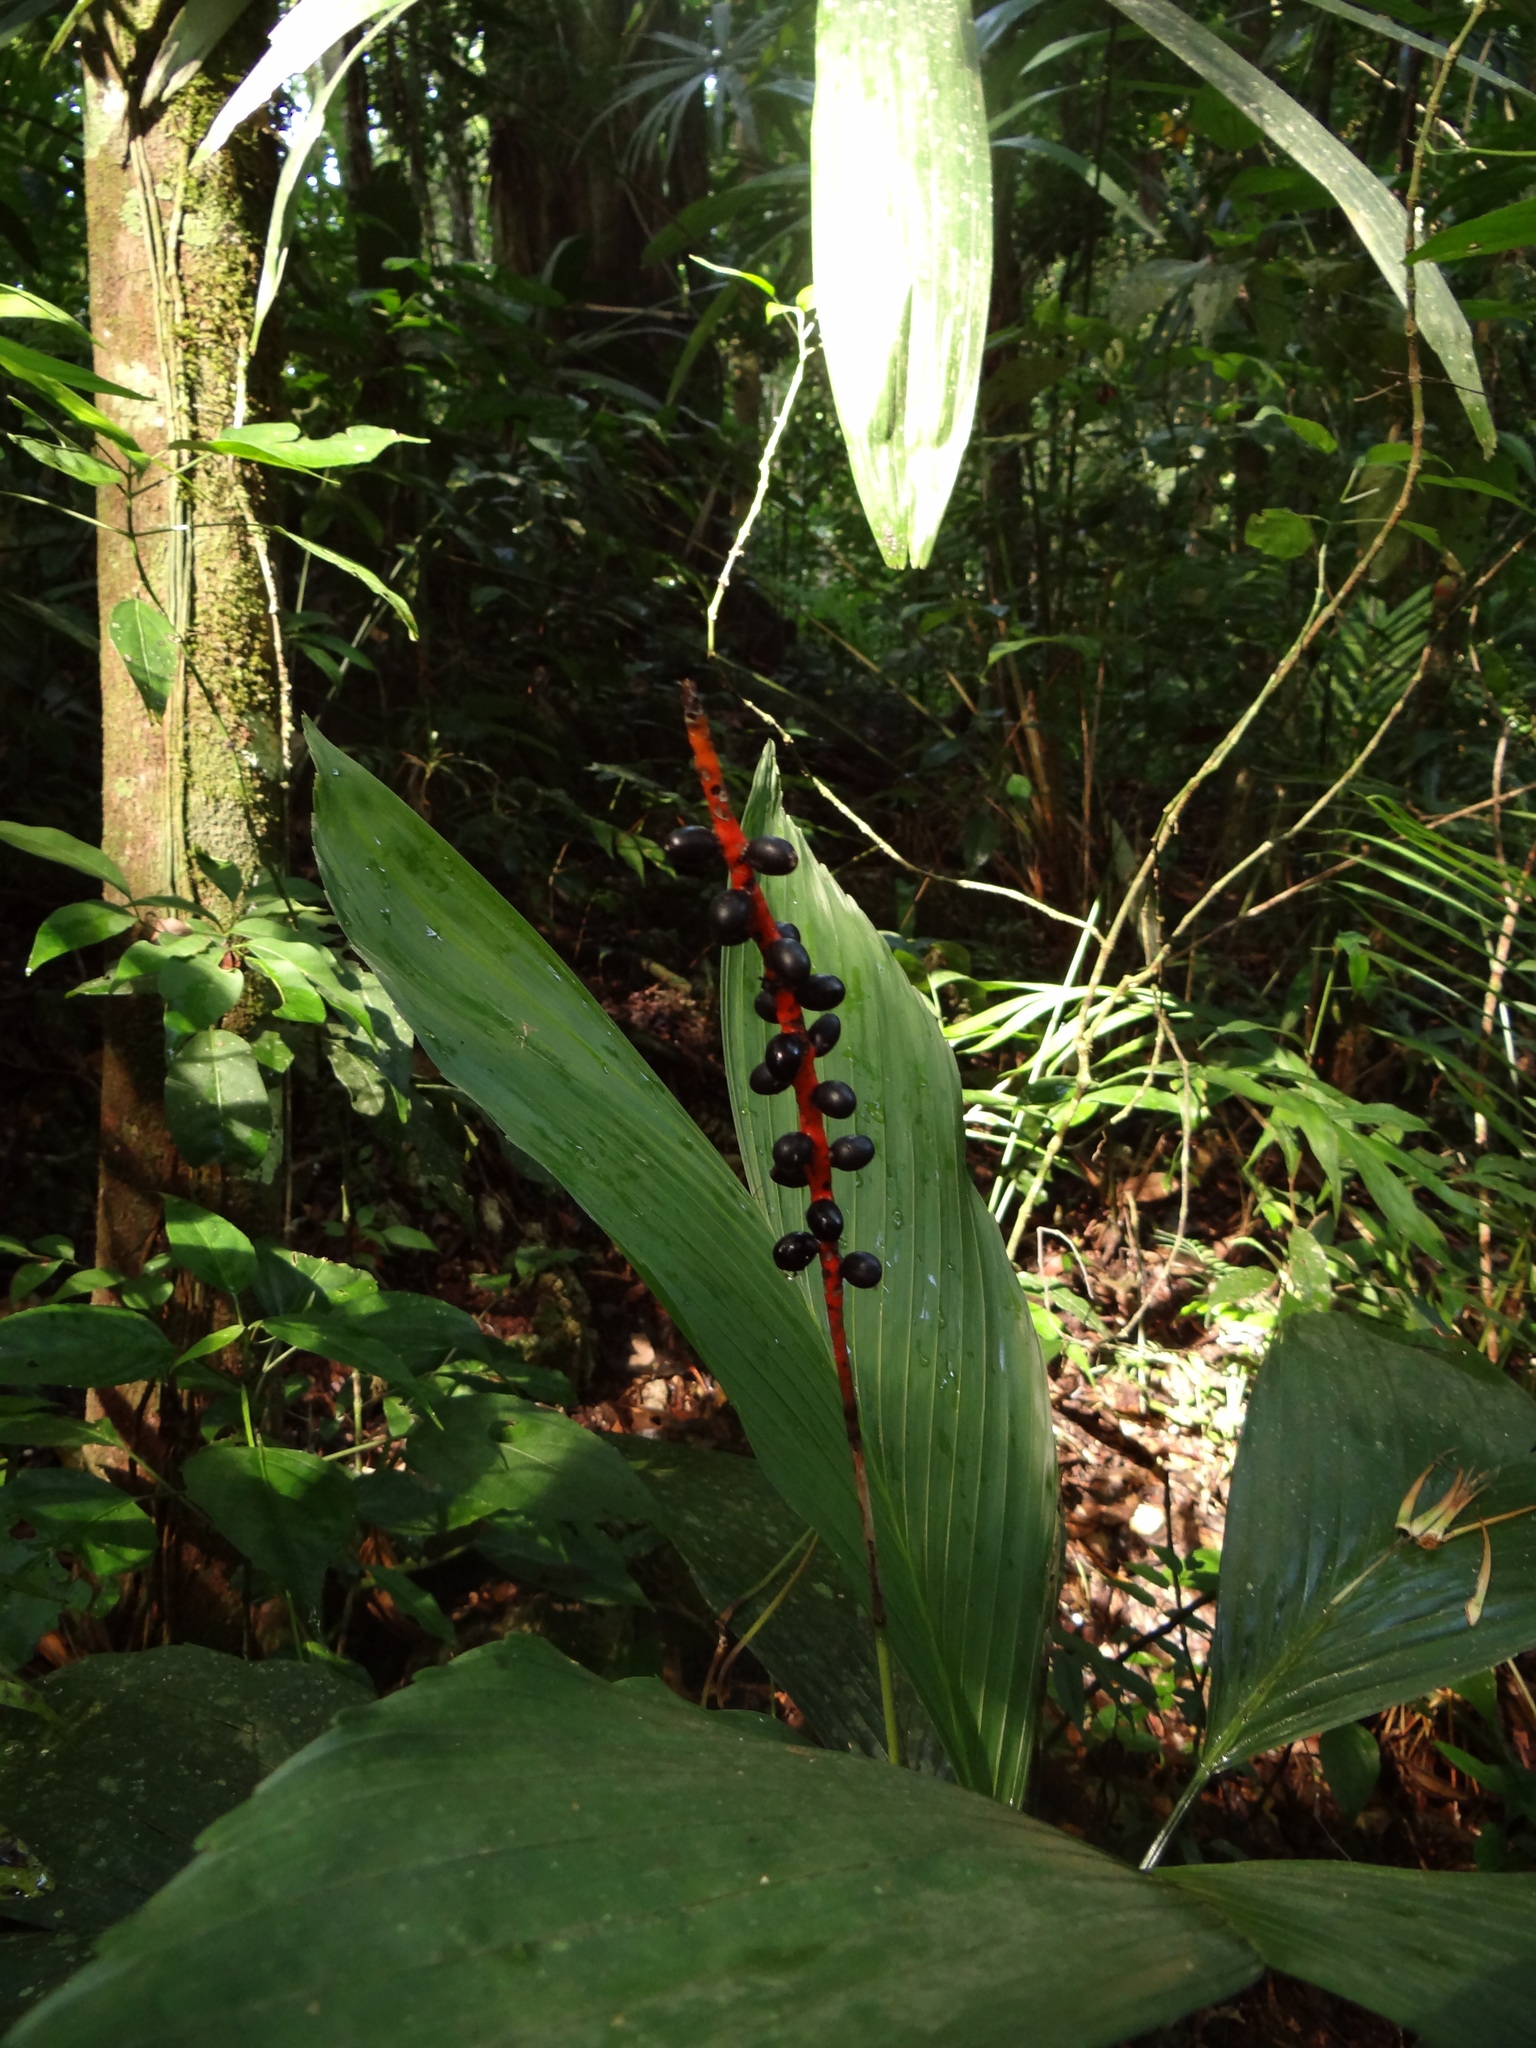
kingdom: Plantae
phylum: Tracheophyta
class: Liliopsida
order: Arecales
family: Arecaceae
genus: Chamaedorea
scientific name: Chamaedorea ernesti-augusti
